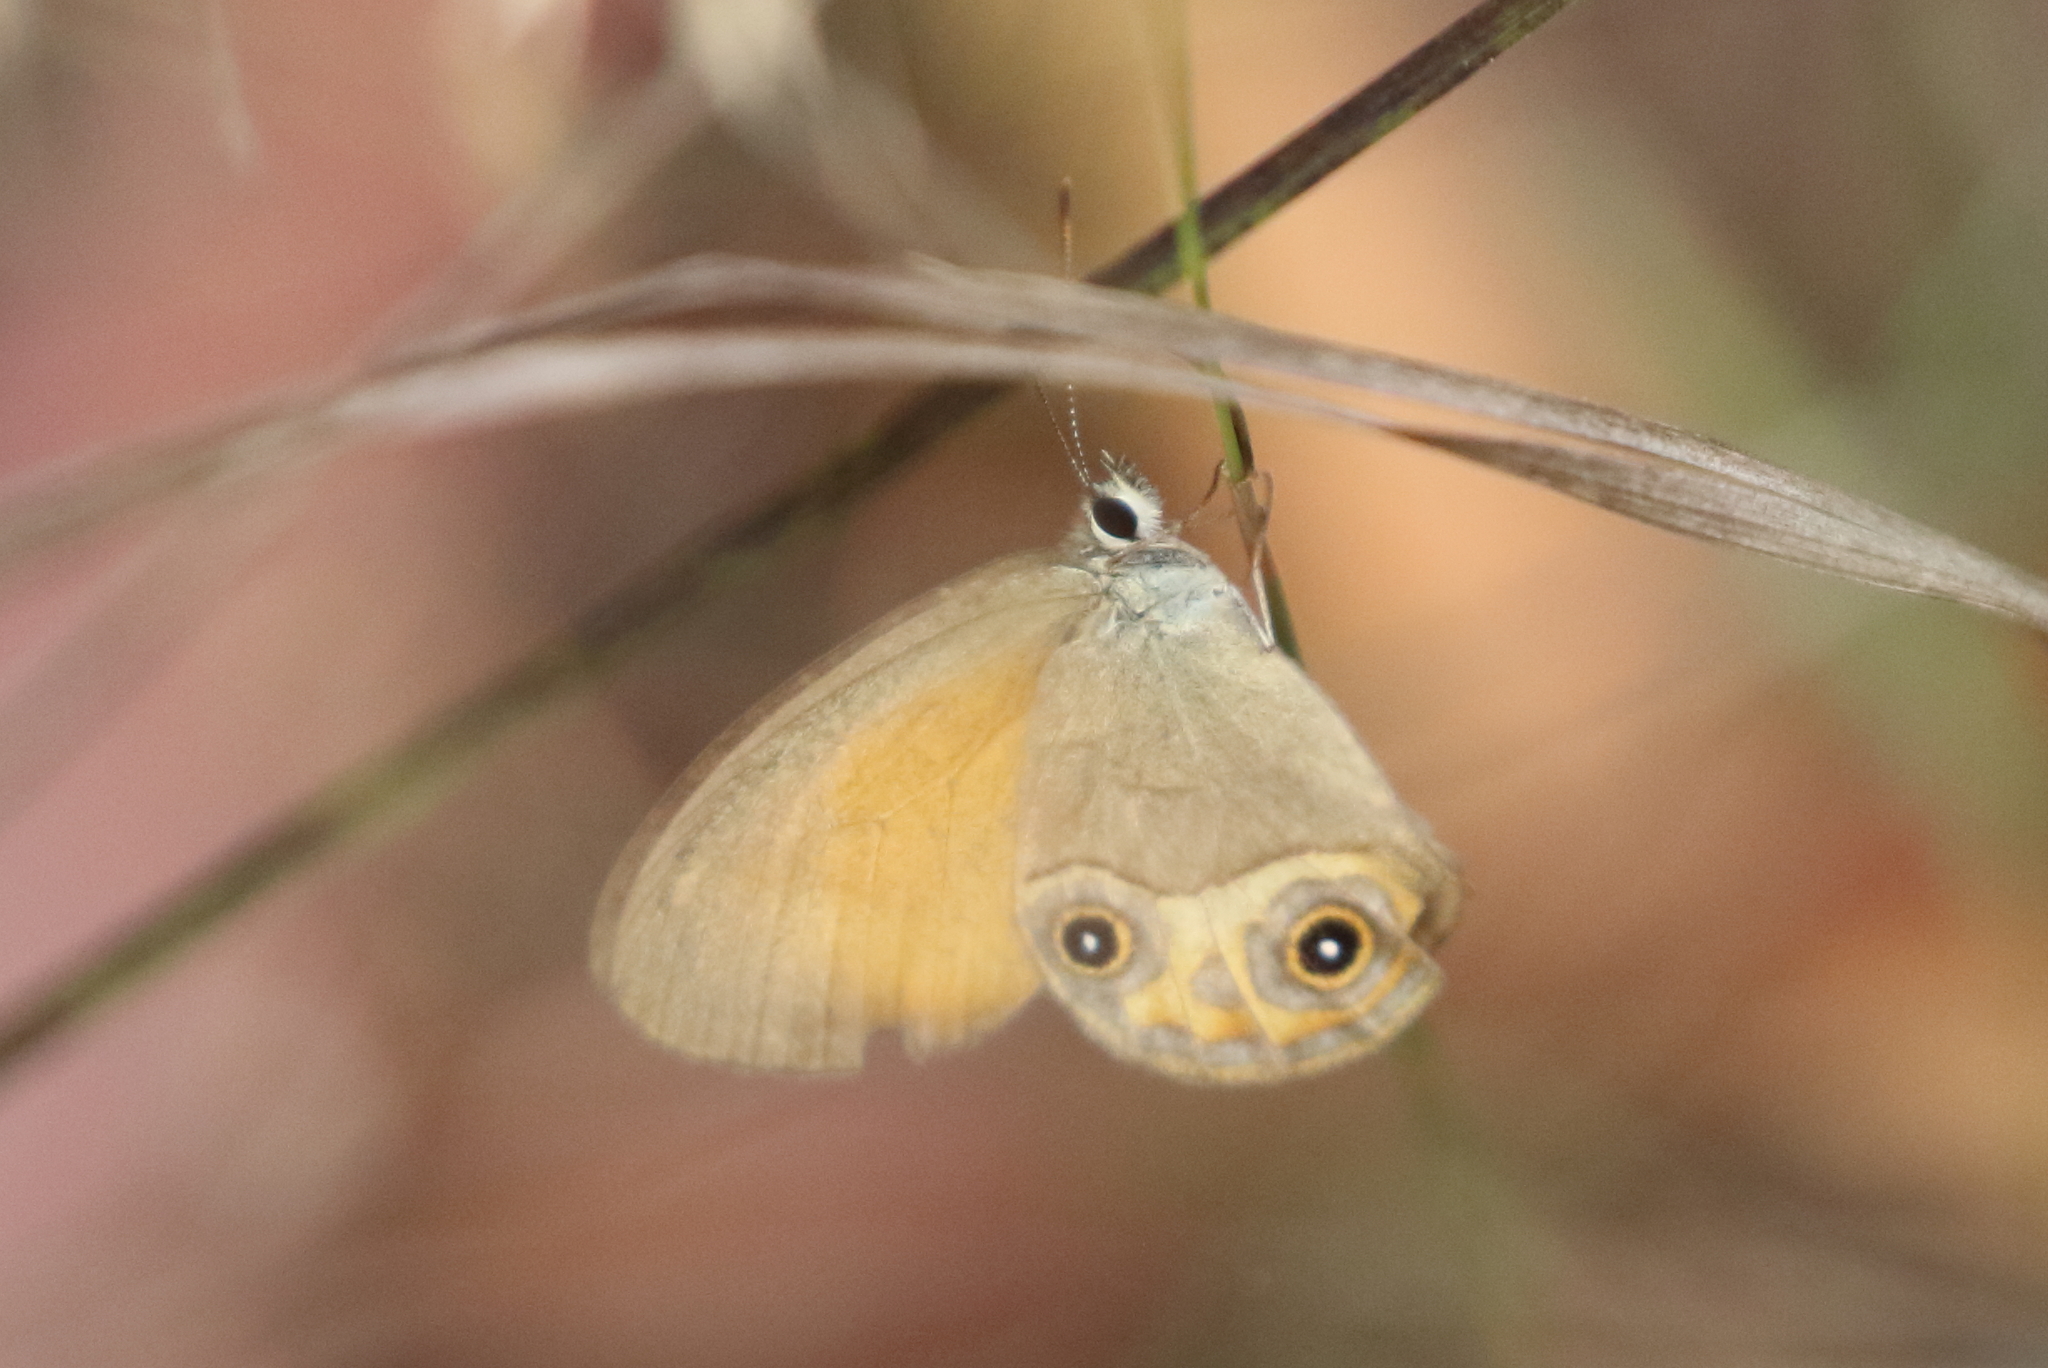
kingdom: Animalia
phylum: Arthropoda
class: Insecta
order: Lepidoptera
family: Nymphalidae
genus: Hypocysta
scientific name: Hypocysta adiante
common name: Orange ringlet
